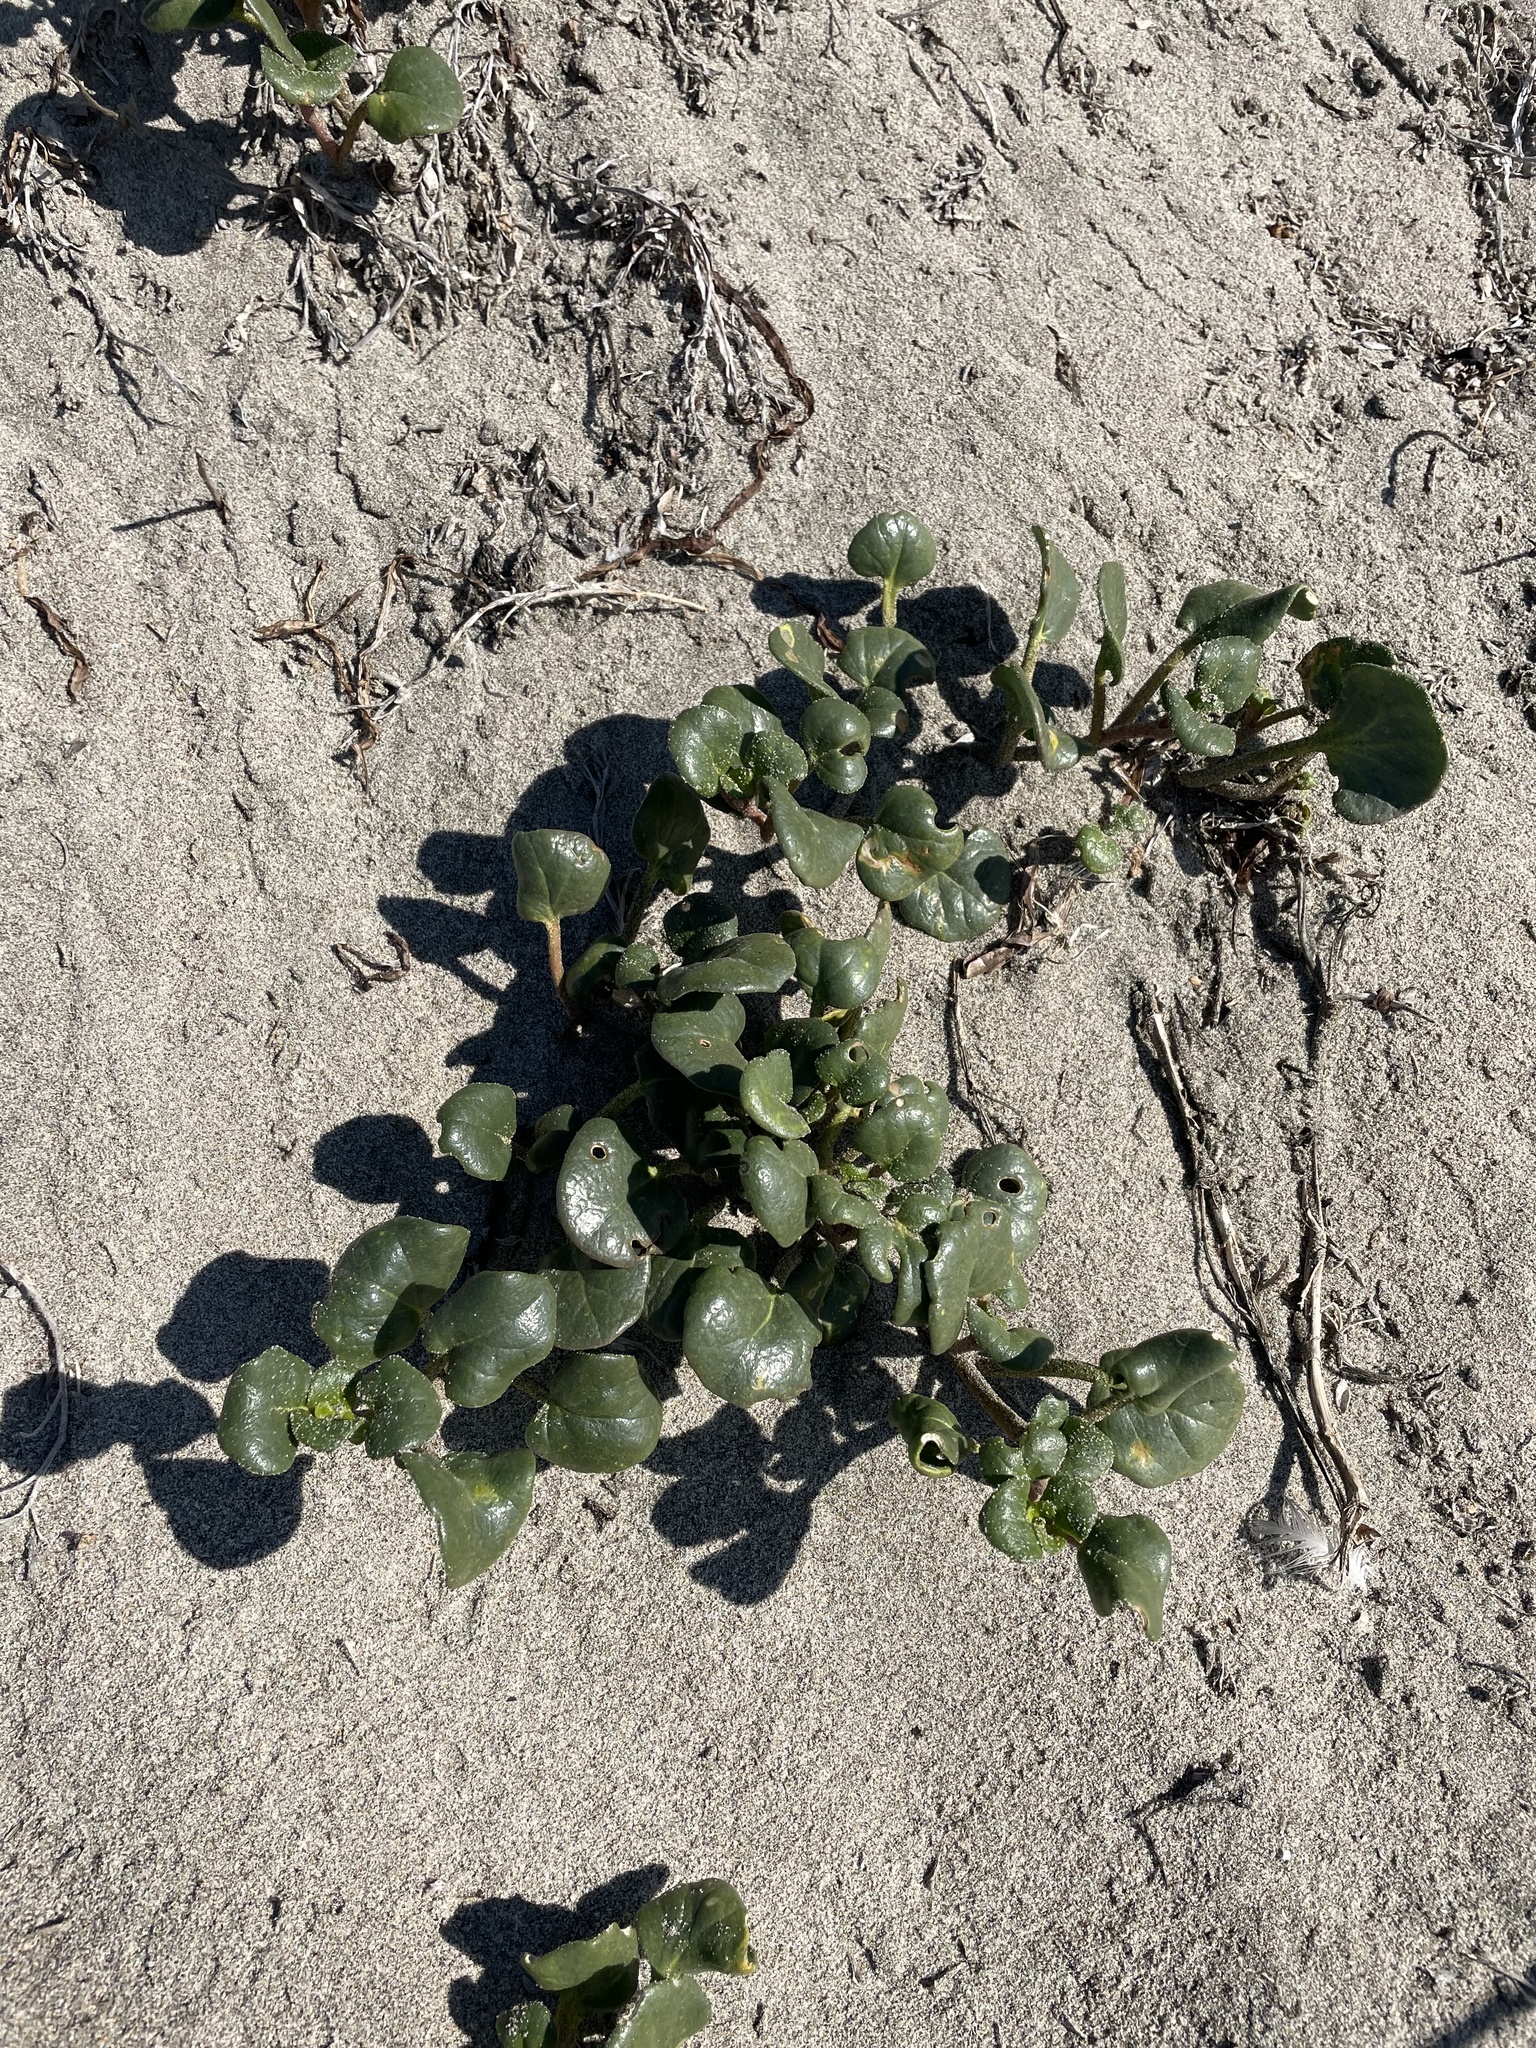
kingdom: Plantae
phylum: Tracheophyta
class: Magnoliopsida
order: Caryophyllales
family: Nyctaginaceae
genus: Abronia
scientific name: Abronia latifolia
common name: Yellow sand-verbena
